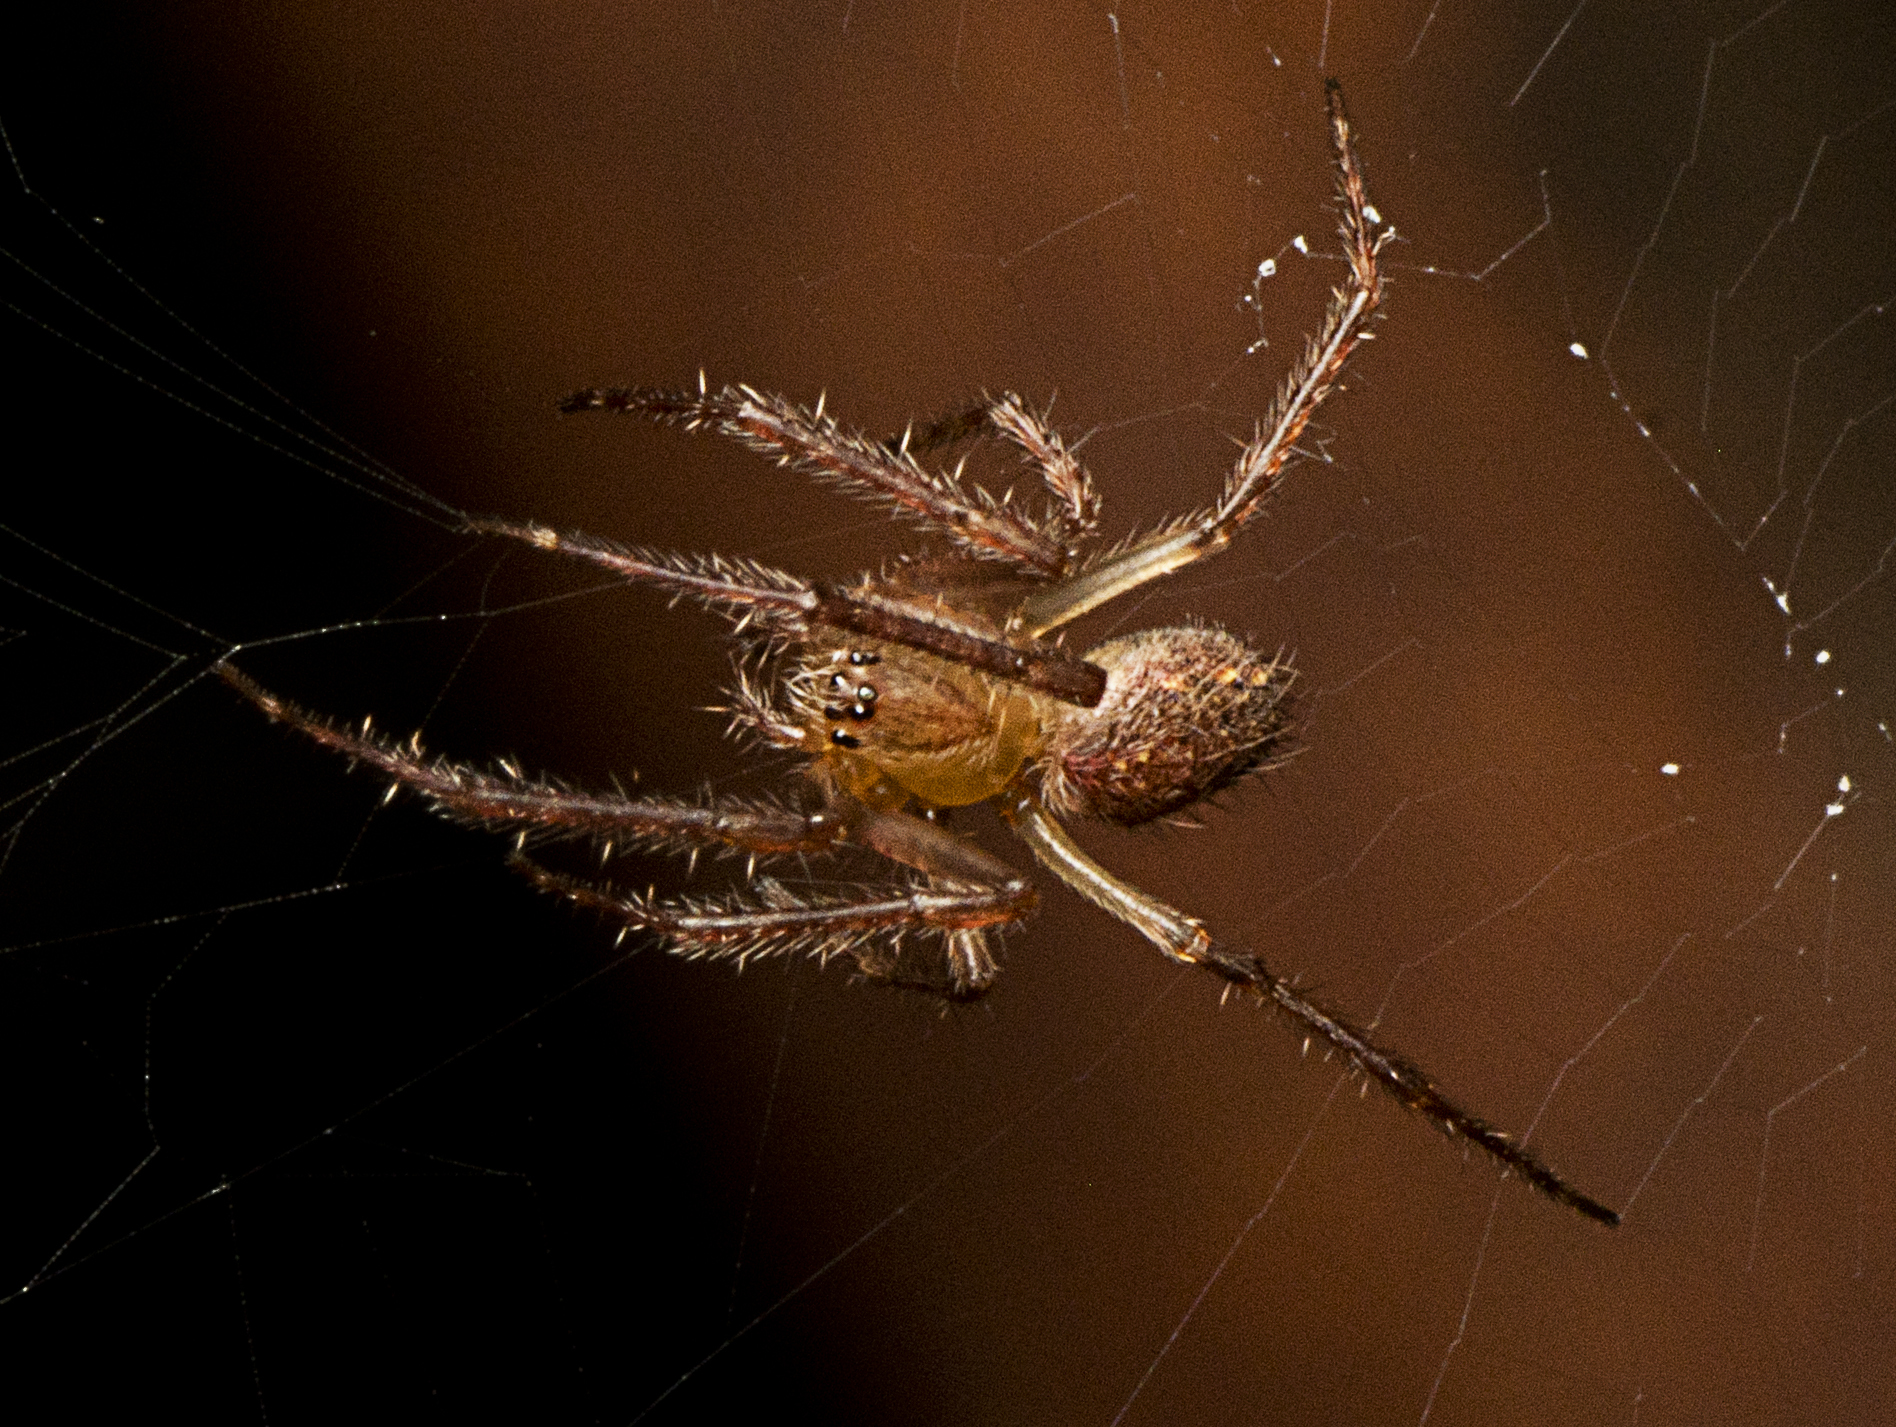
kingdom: Animalia
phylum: Arthropoda
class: Arachnida
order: Araneae
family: Araneidae
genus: Araneus
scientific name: Araneus stolidus
